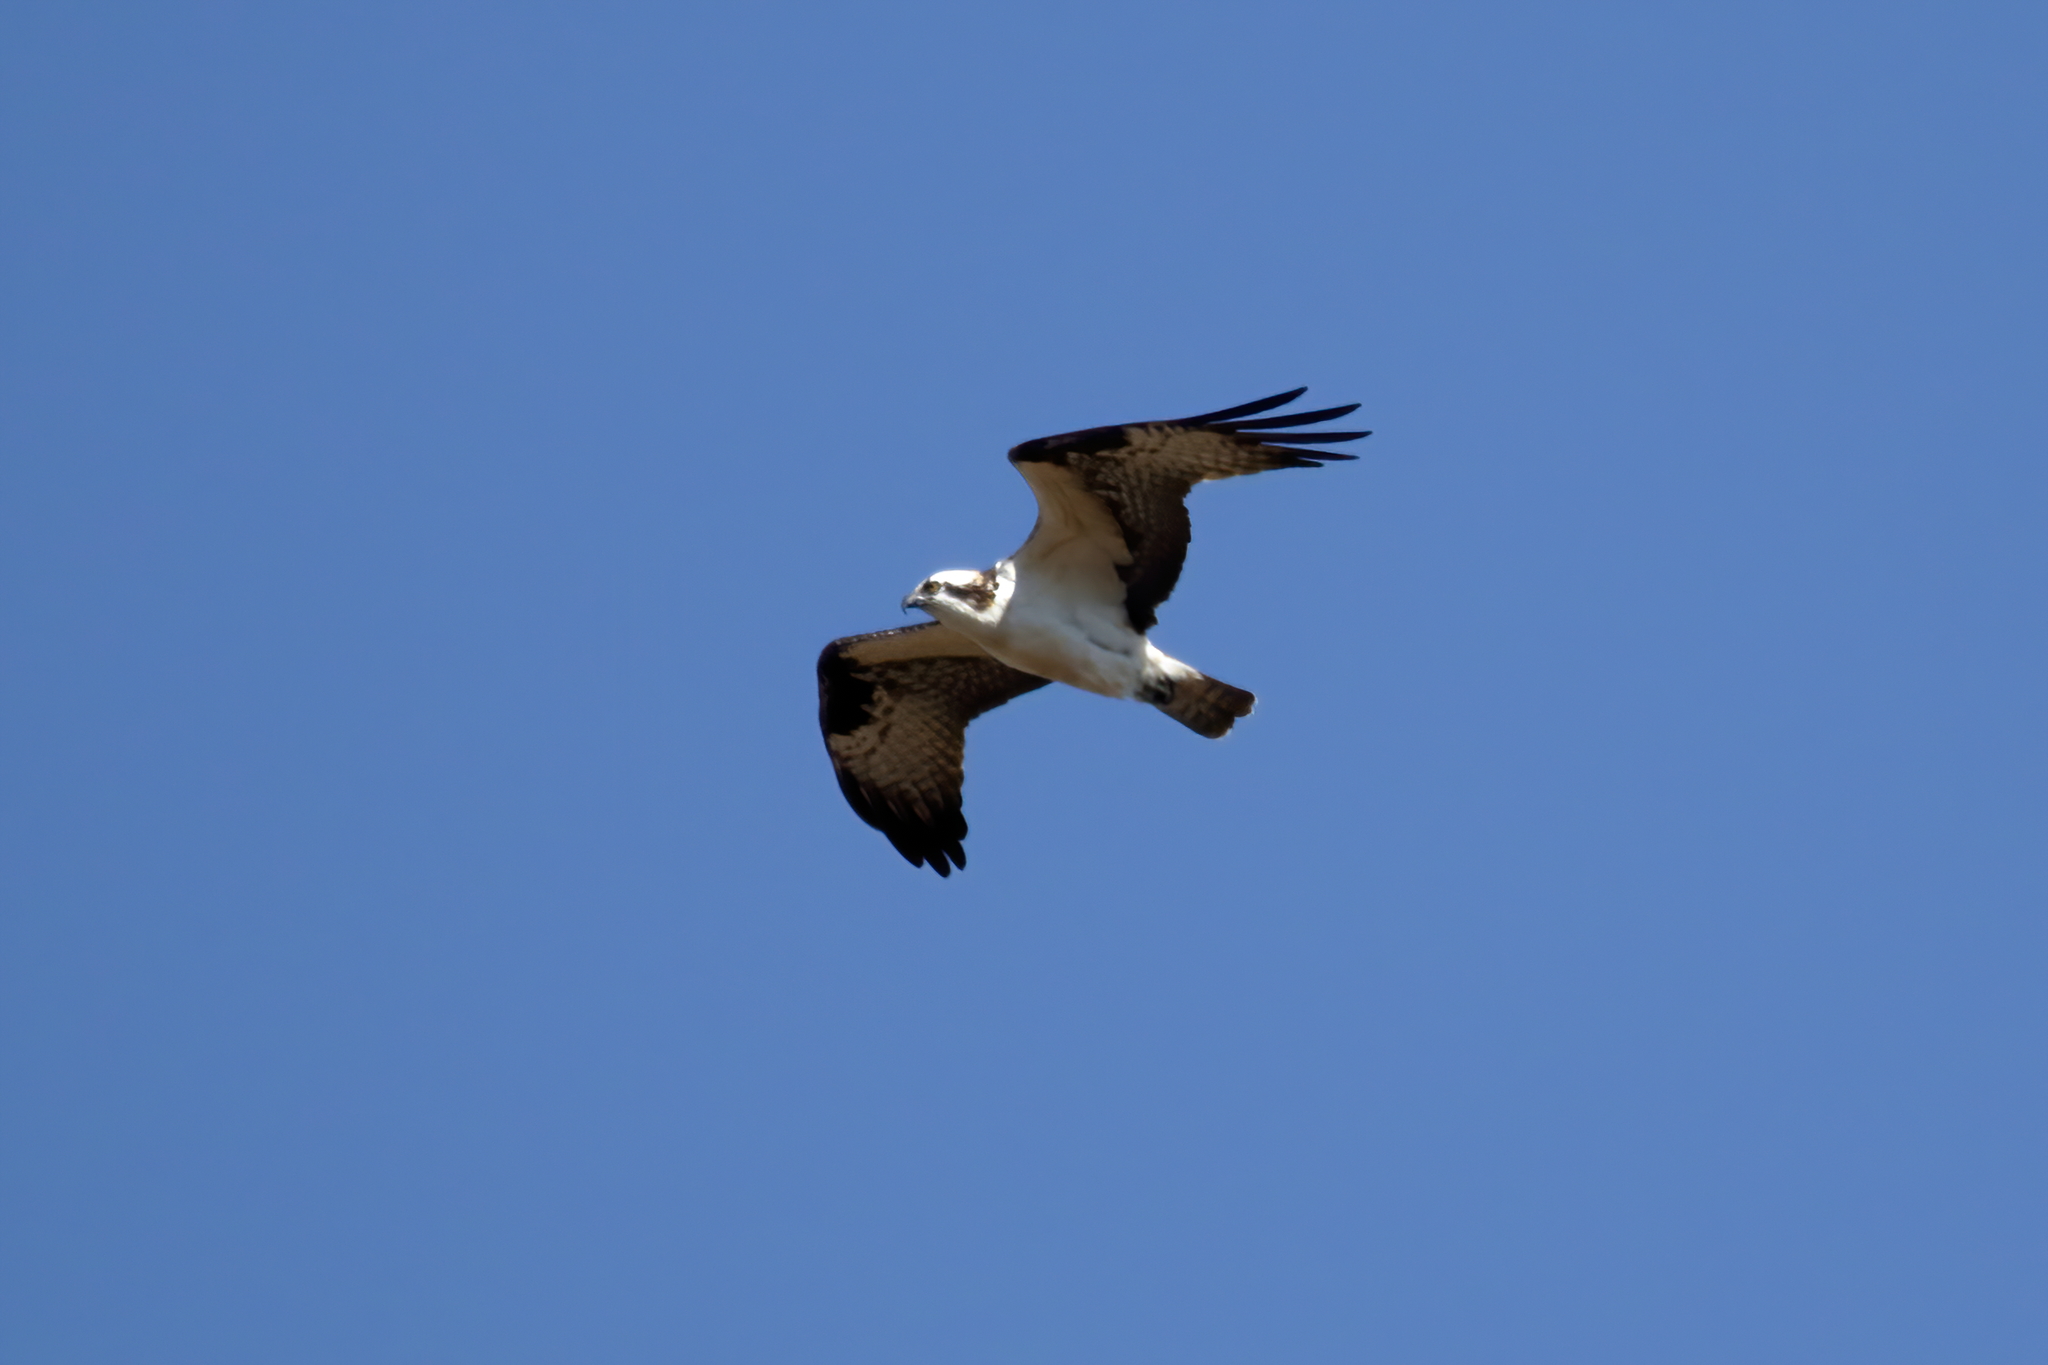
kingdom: Animalia
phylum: Chordata
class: Aves
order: Accipitriformes
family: Pandionidae
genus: Pandion
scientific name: Pandion haliaetus
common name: Osprey
